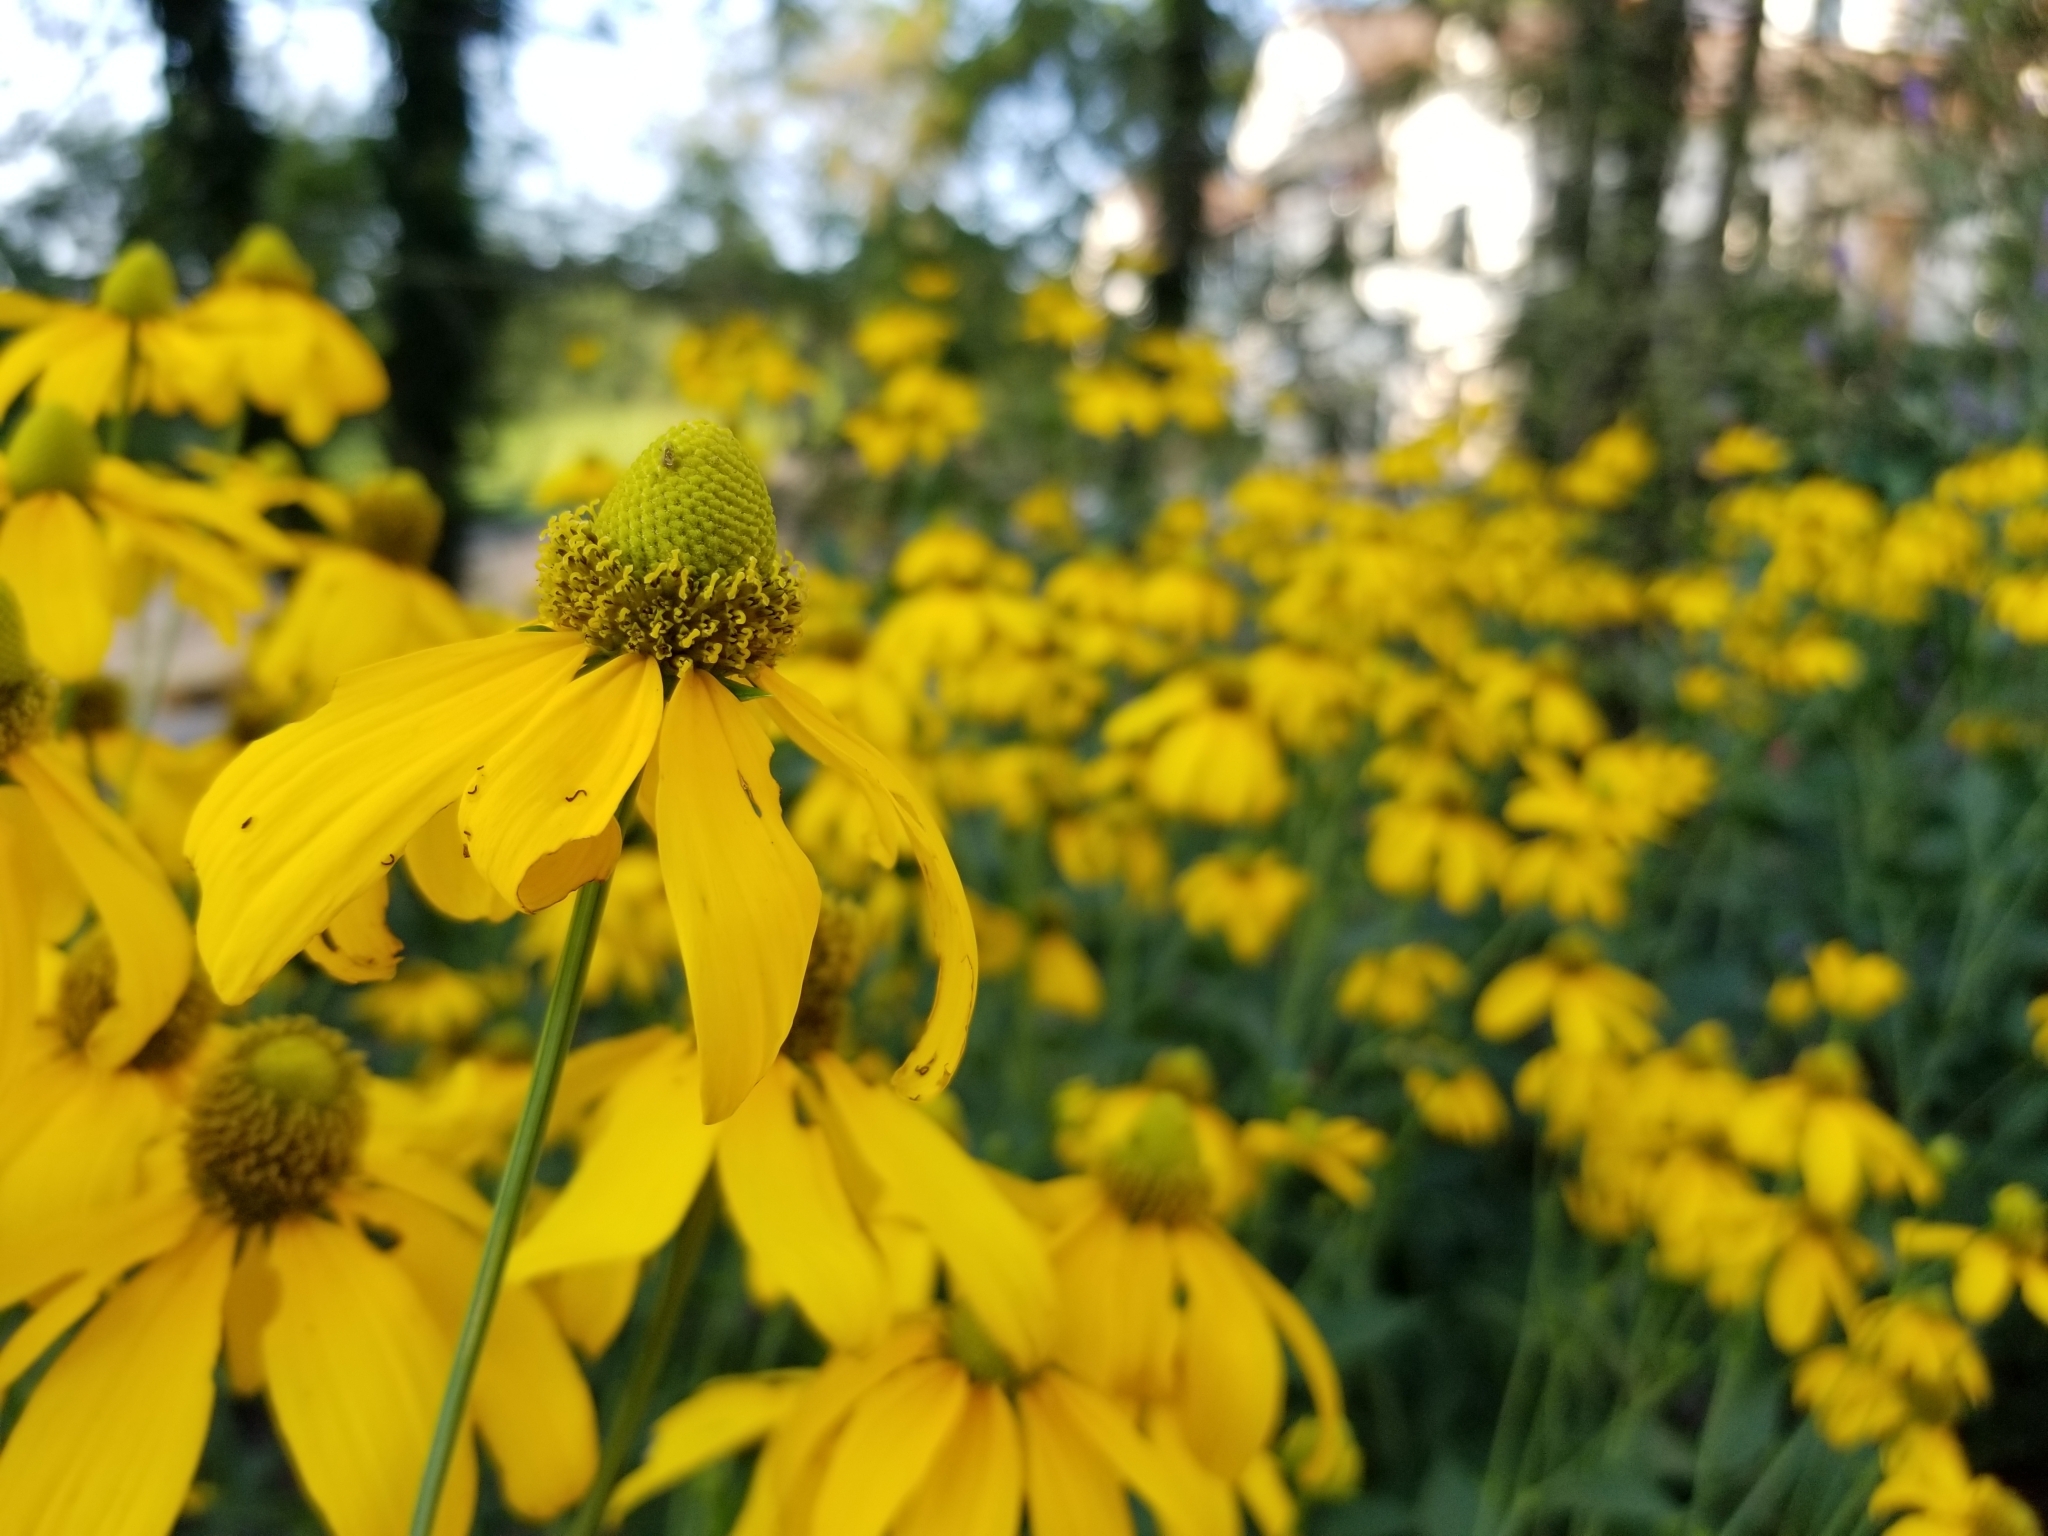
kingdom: Plantae
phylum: Tracheophyta
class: Magnoliopsida
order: Asterales
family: Asteraceae
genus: Rudbeckia
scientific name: Rudbeckia laciniata
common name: Coneflower
